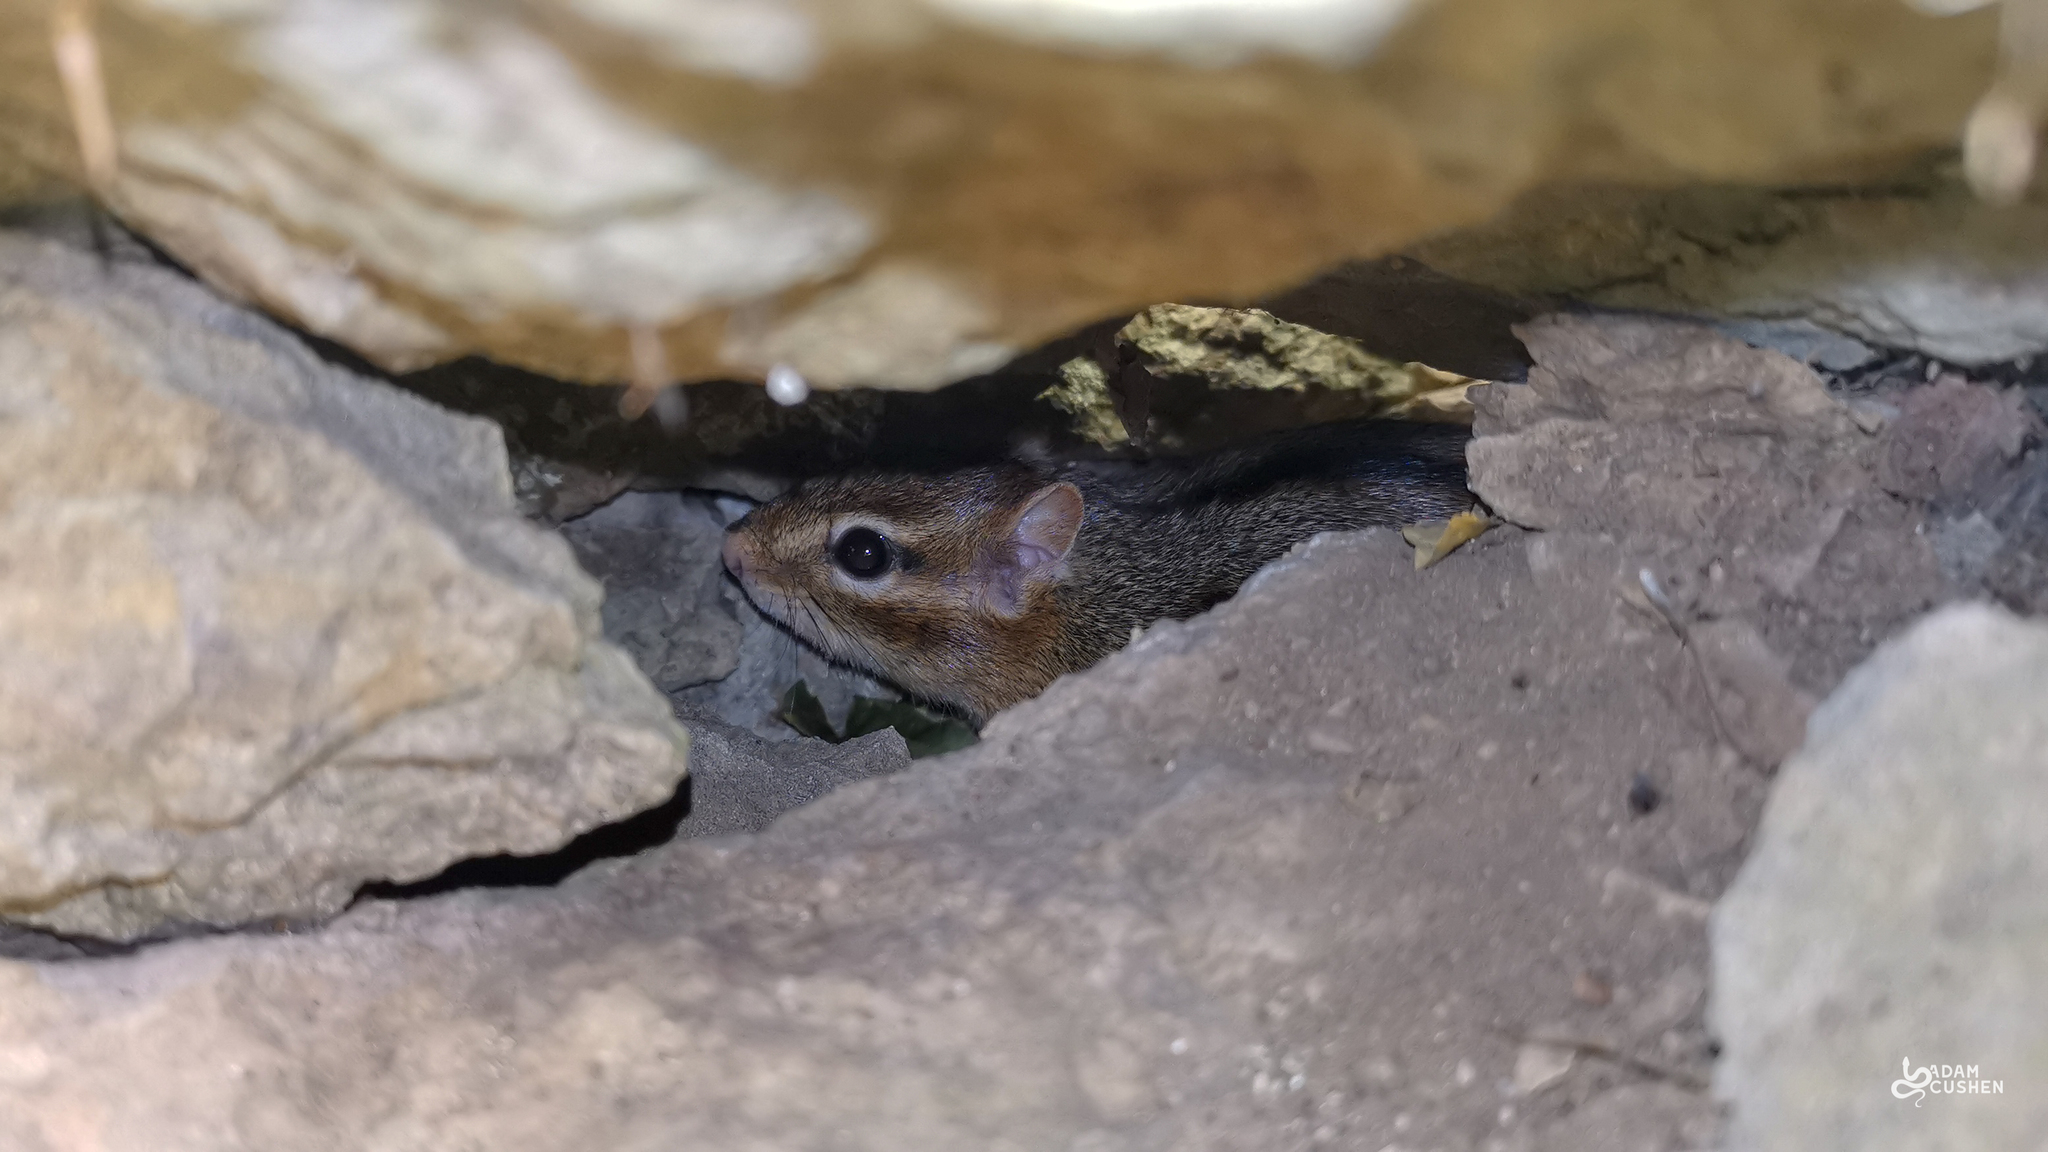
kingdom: Animalia
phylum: Chordata
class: Mammalia
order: Rodentia
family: Sciuridae
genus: Tamias
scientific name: Tamias striatus
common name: Eastern chipmunk
